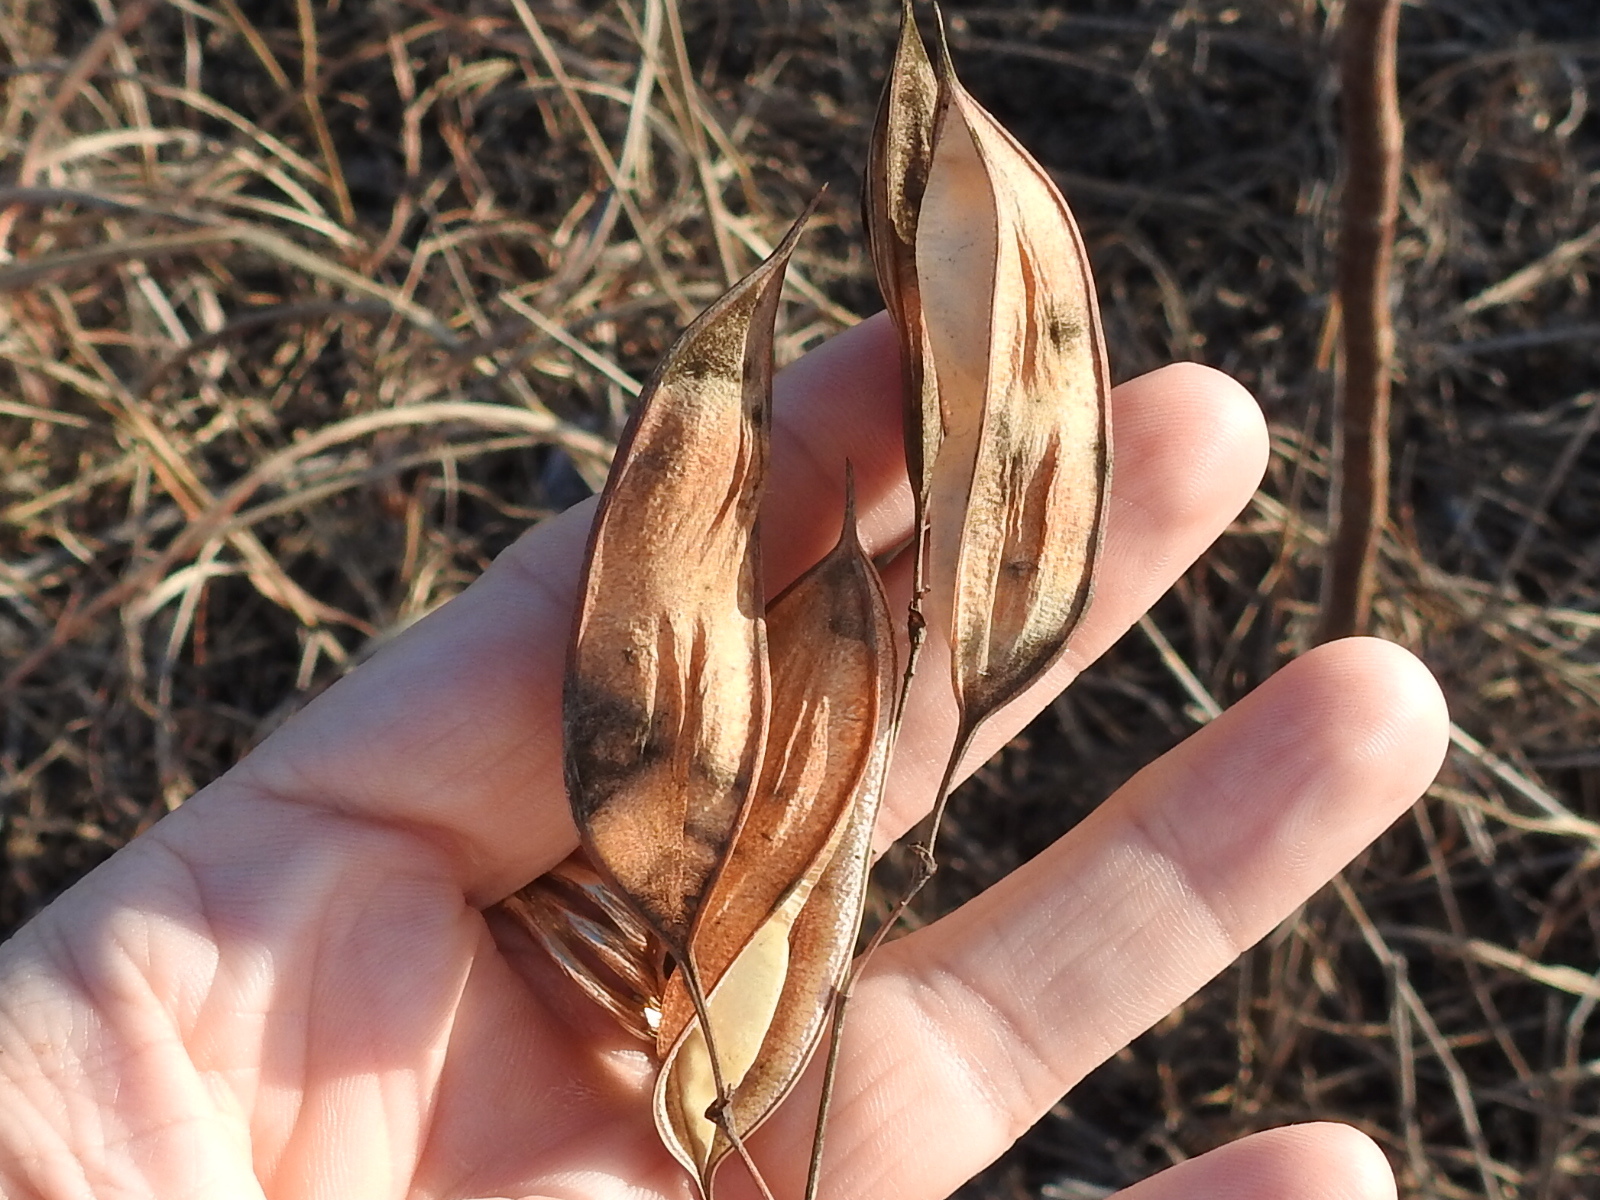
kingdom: Plantae
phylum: Tracheophyta
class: Magnoliopsida
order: Fabales
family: Fabaceae
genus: Sesbania
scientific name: Sesbania vesicaria
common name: Bagpod
